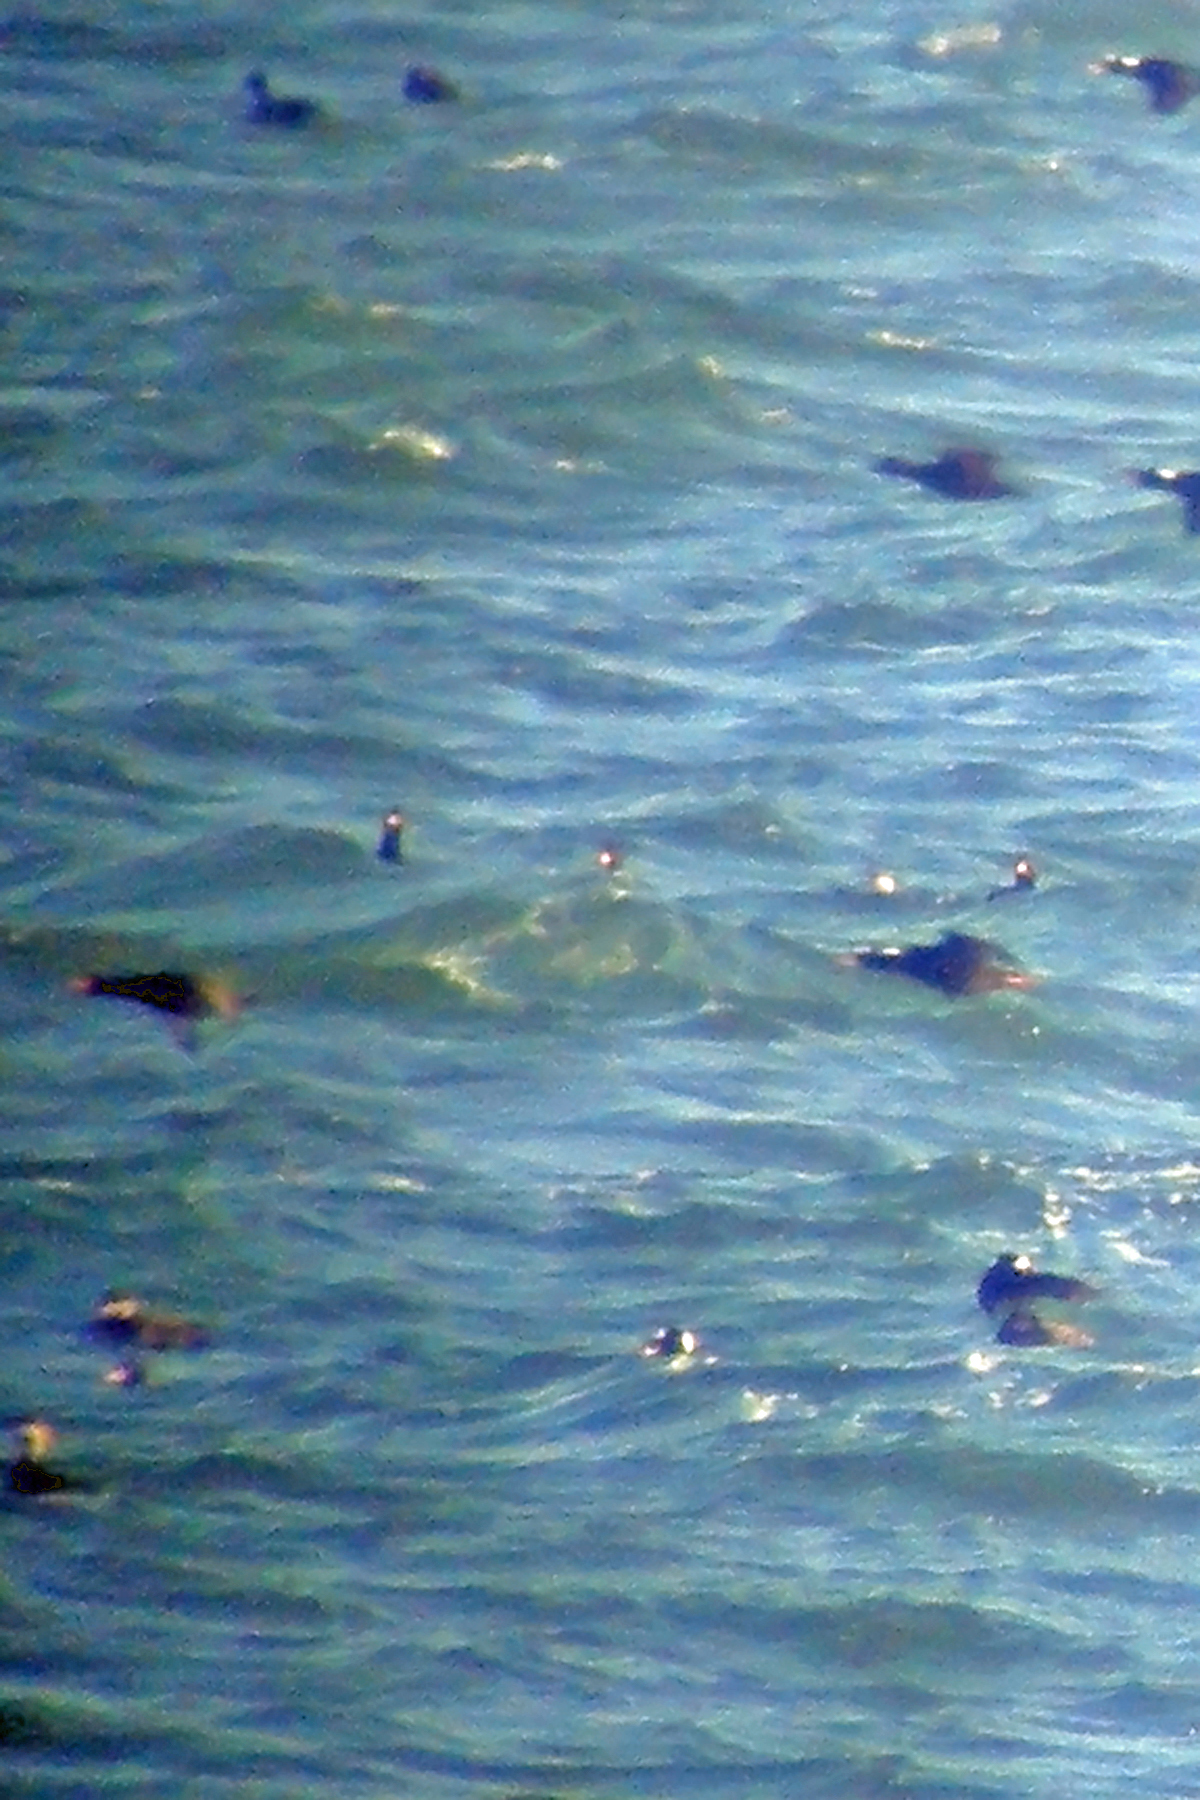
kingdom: Animalia
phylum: Chordata
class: Aves
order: Anseriformes
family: Anatidae
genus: Melanitta
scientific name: Melanitta americana
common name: Black scoter
